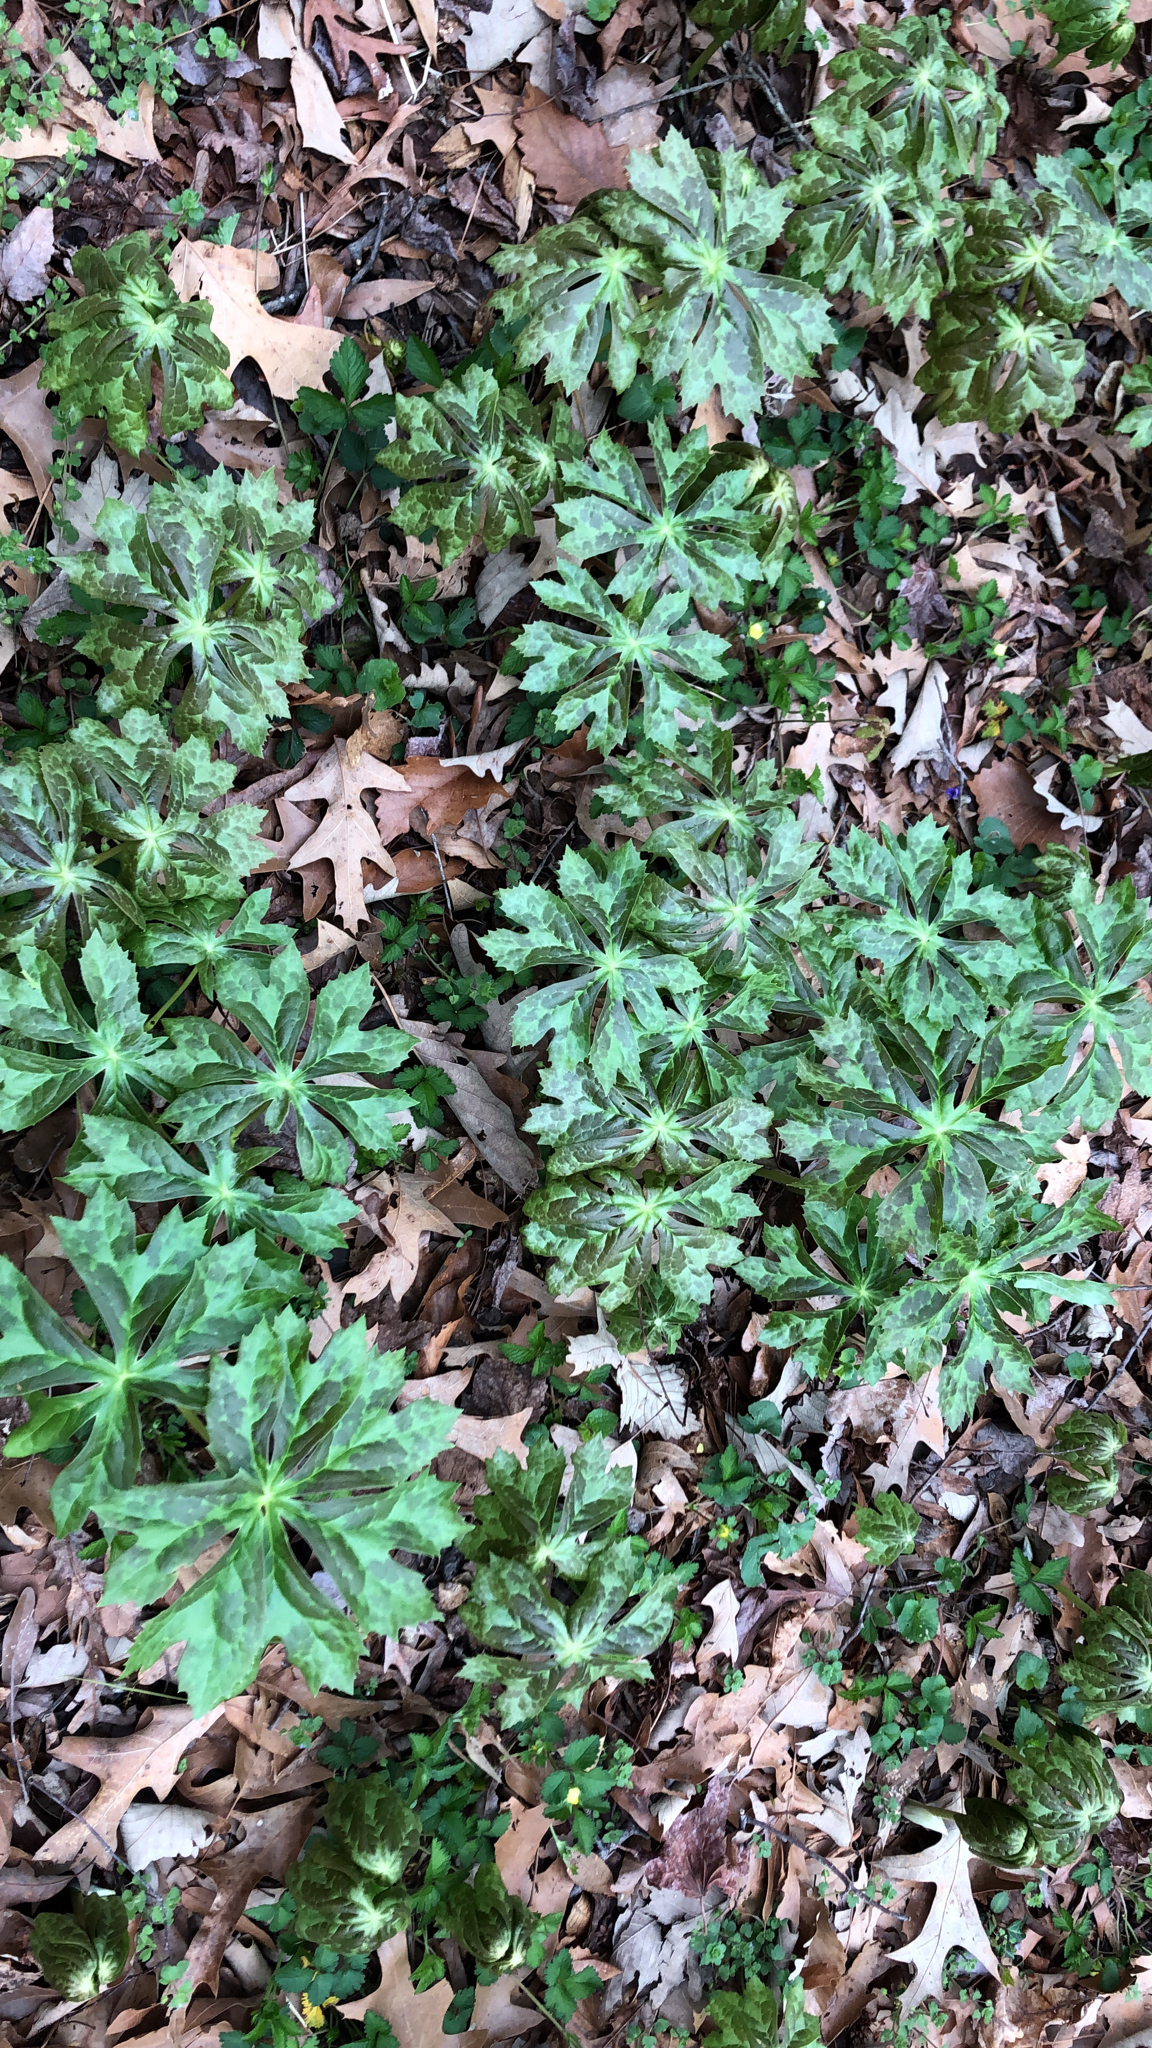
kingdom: Plantae
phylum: Tracheophyta
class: Magnoliopsida
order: Ranunculales
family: Berberidaceae
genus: Podophyllum
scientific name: Podophyllum peltatum
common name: Wild mandrake
